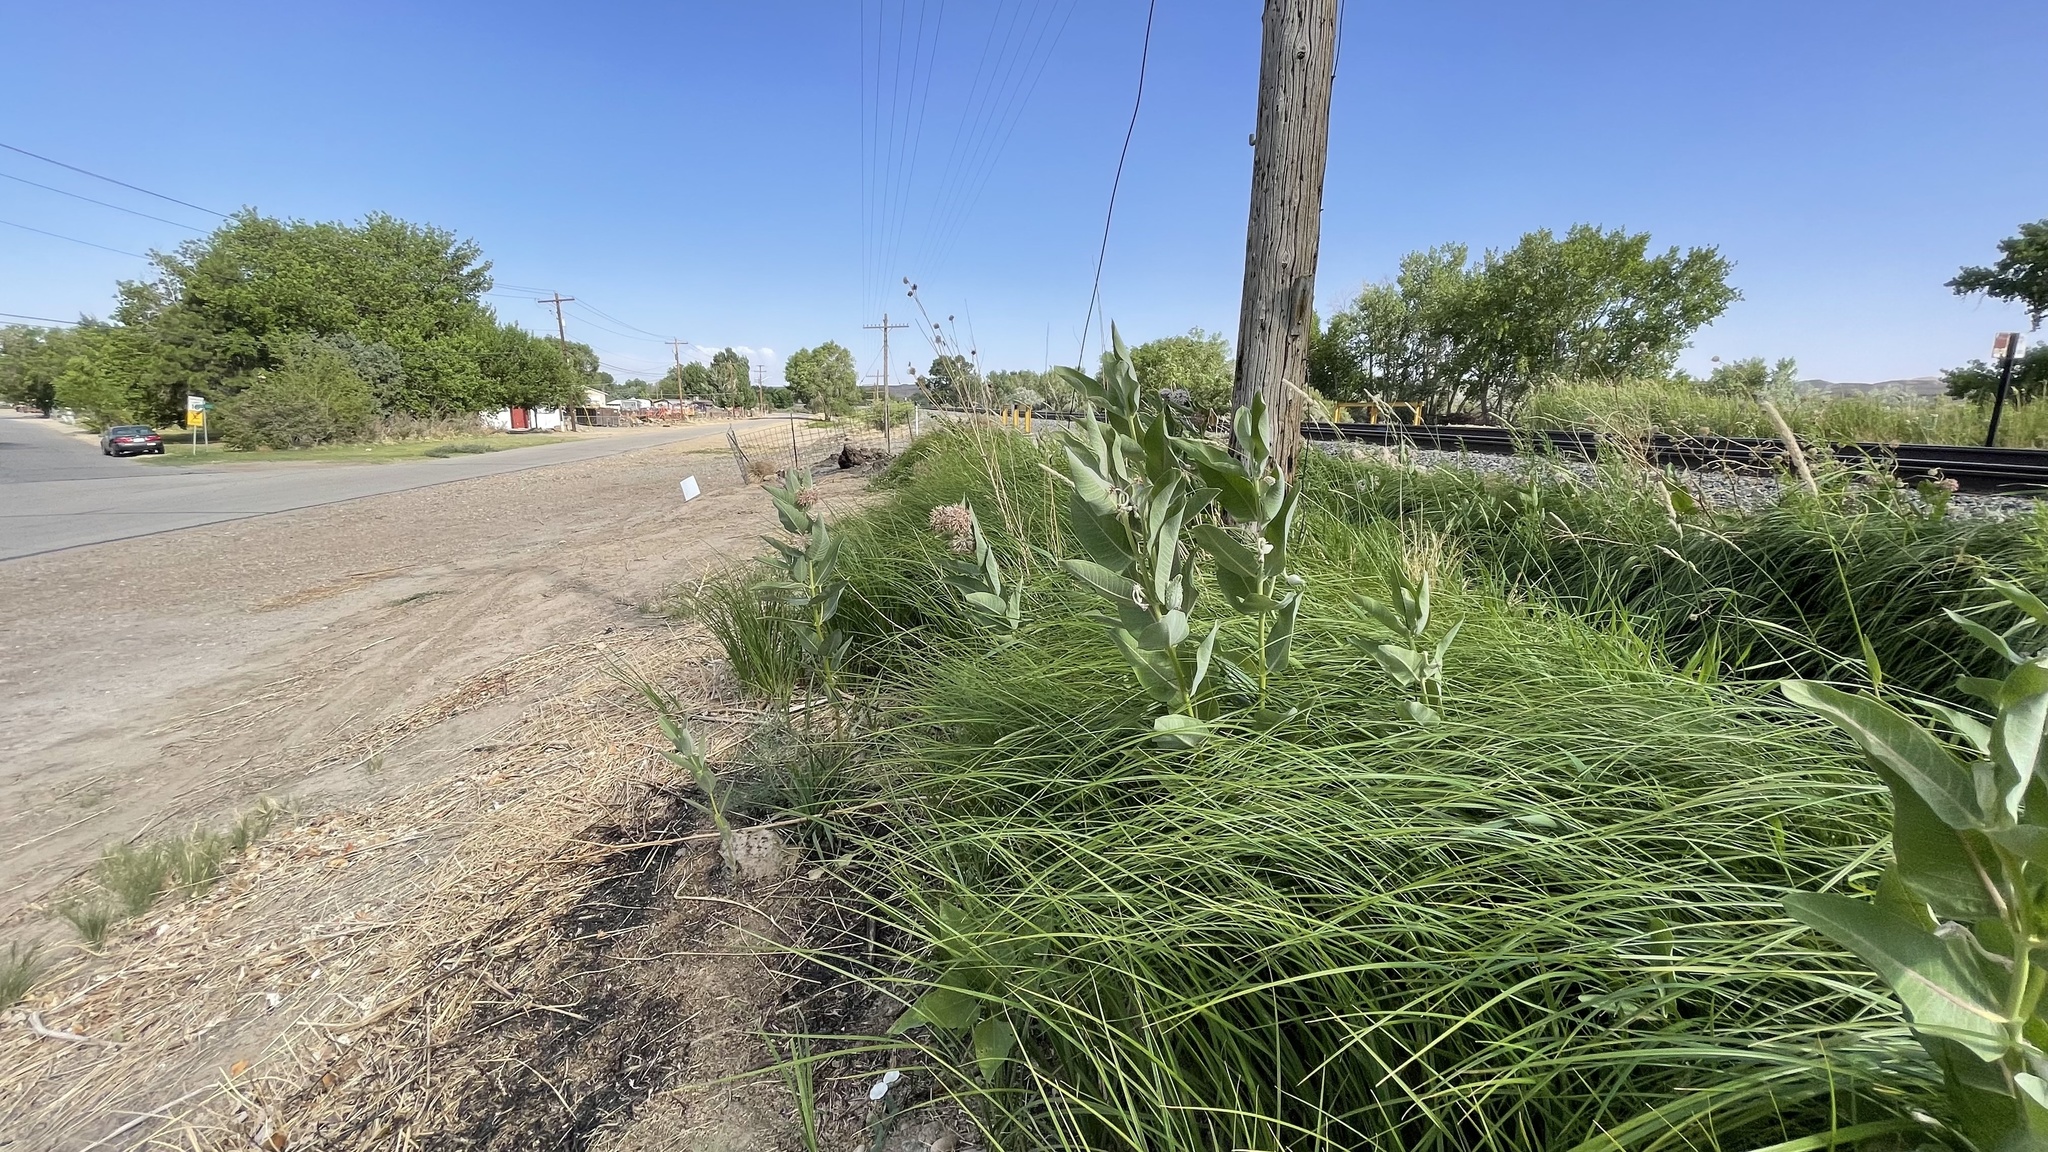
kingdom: Plantae
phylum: Tracheophyta
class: Magnoliopsida
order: Gentianales
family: Apocynaceae
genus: Asclepias
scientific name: Asclepias speciosa
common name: Showy milkweed
